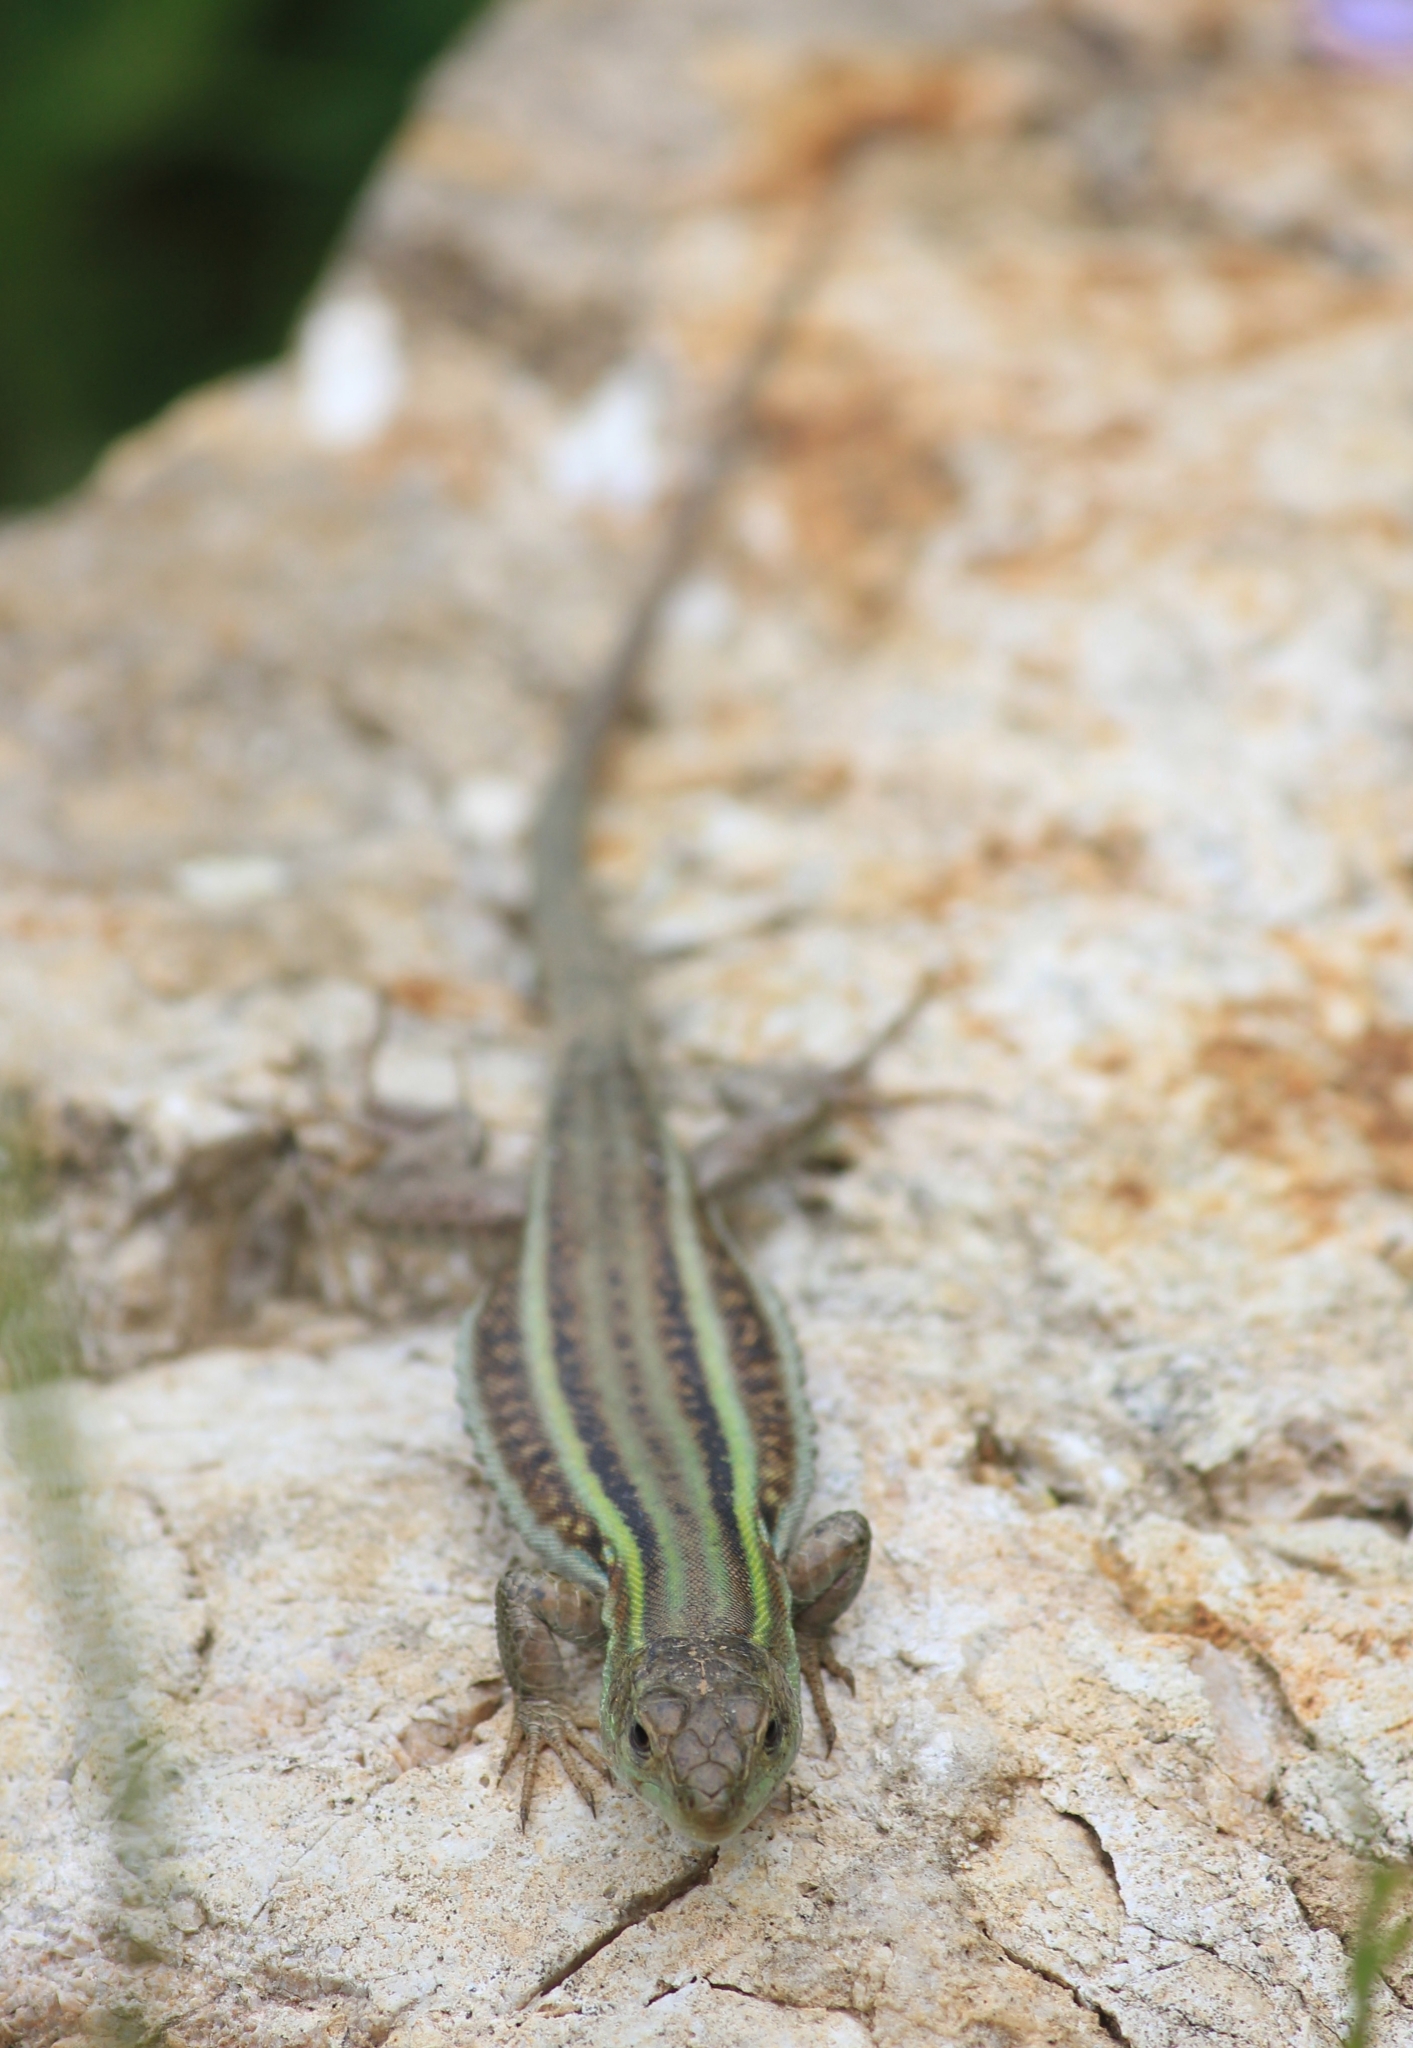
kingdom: Animalia
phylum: Chordata
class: Squamata
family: Lacertidae
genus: Podarcis
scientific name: Podarcis peloponnesiacus
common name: Peloponnese wall lizard
